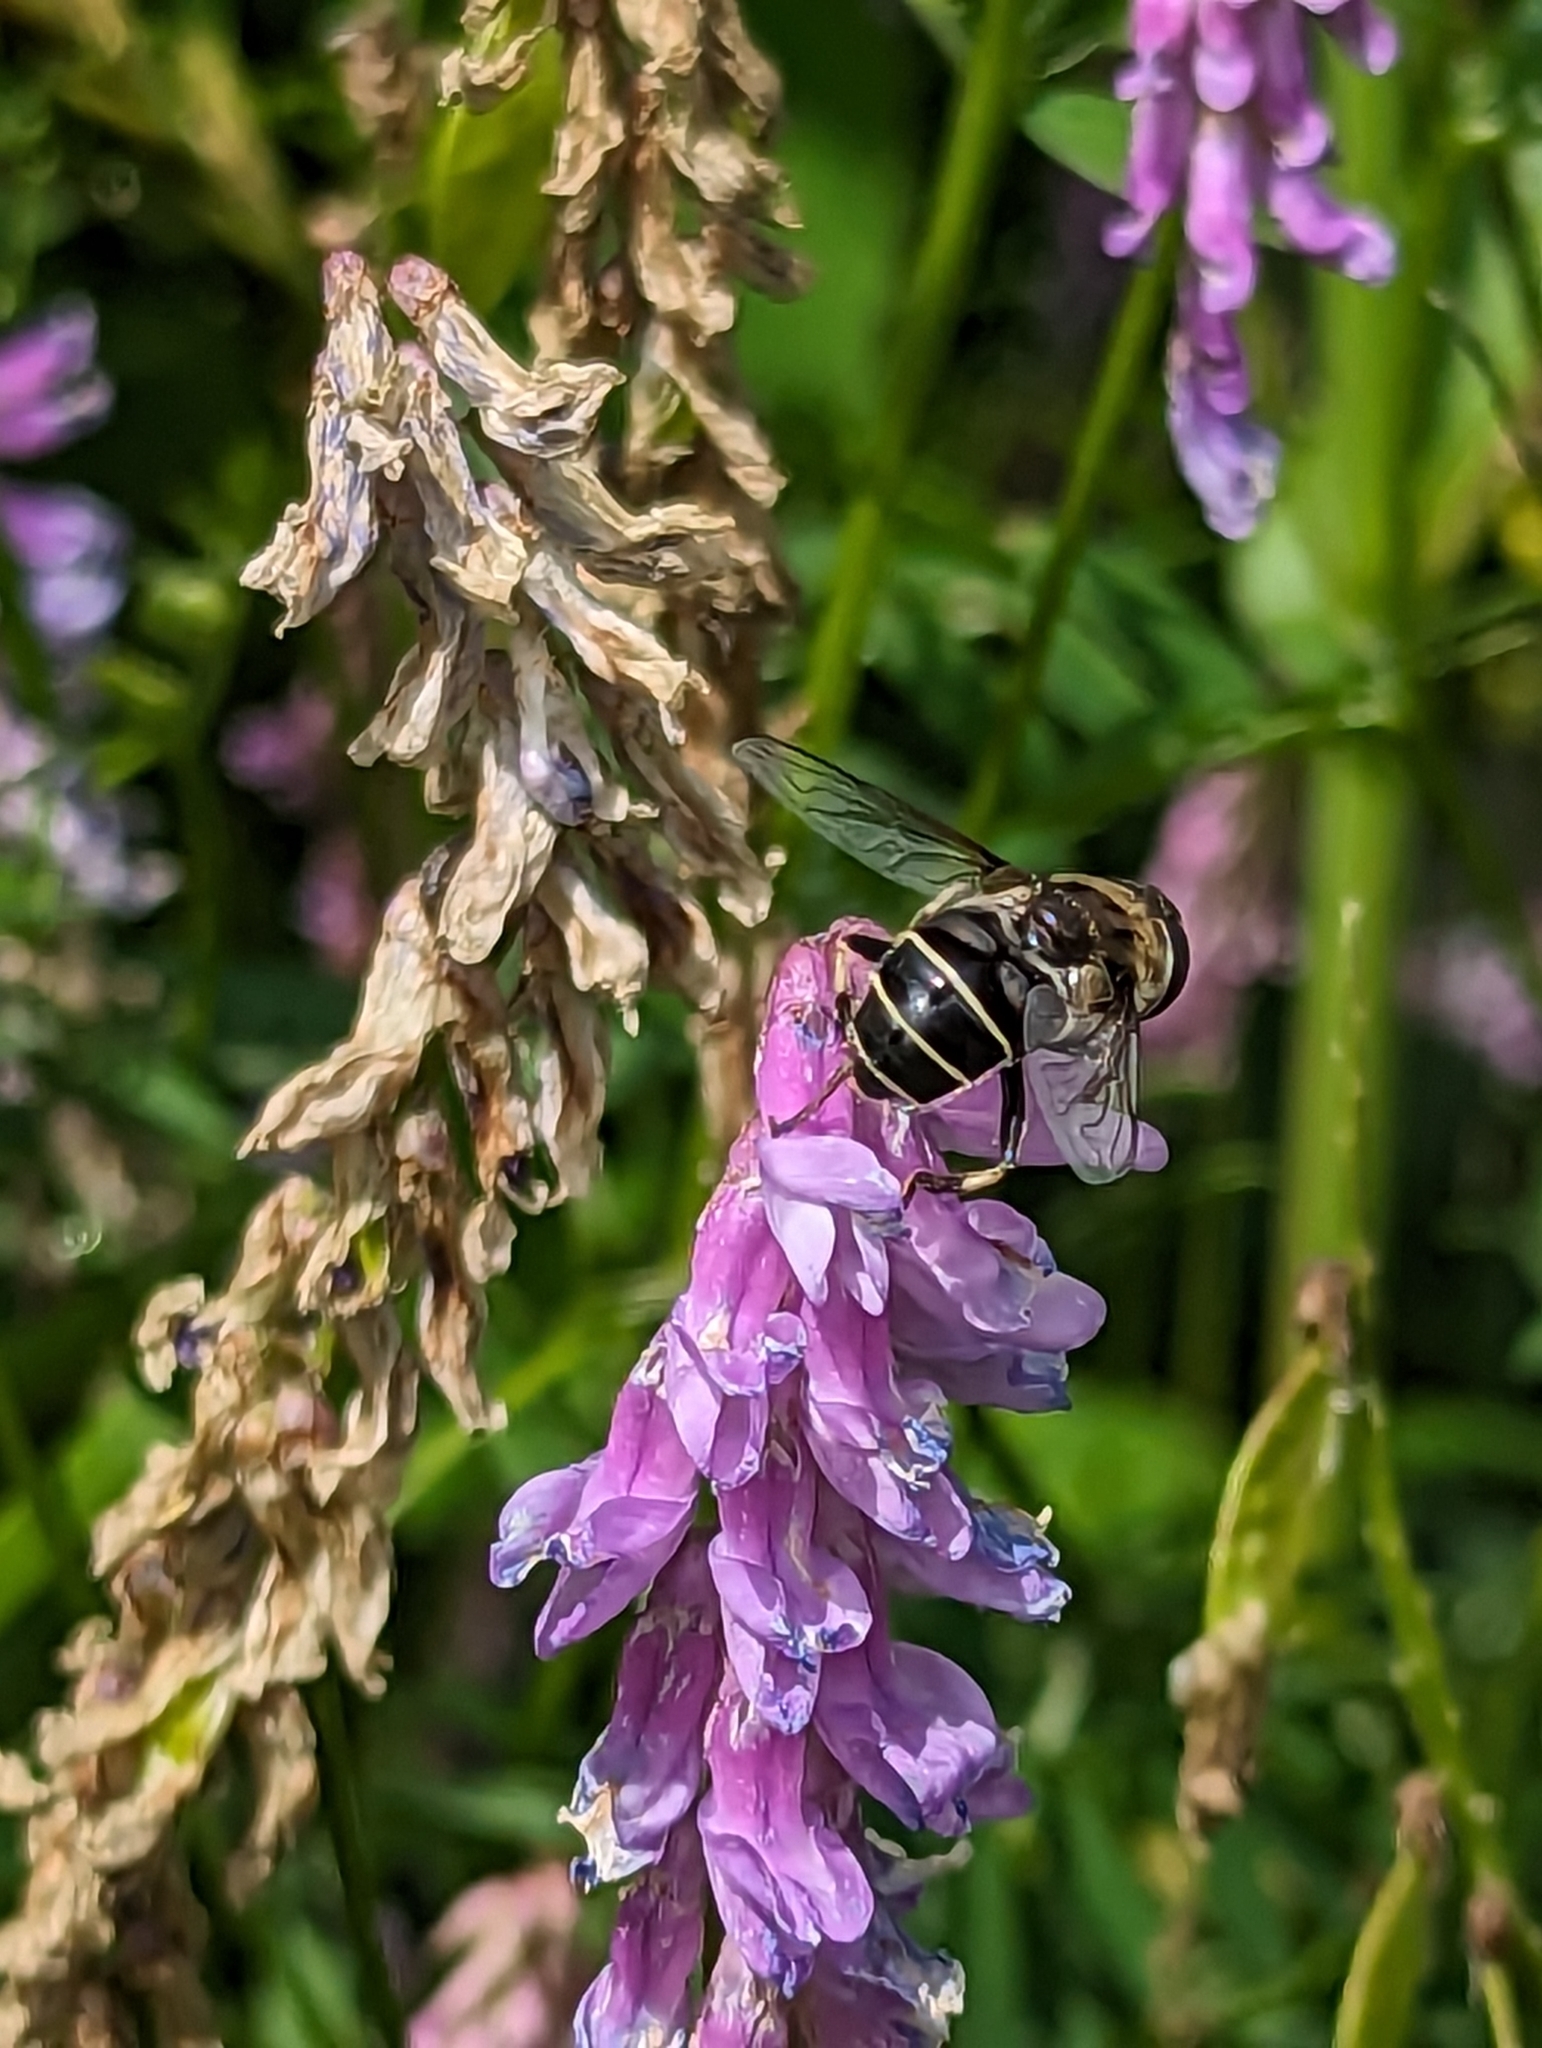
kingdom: Animalia
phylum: Arthropoda
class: Insecta
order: Diptera
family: Syrphidae
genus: Eristalis
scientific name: Eristalis dimidiata
